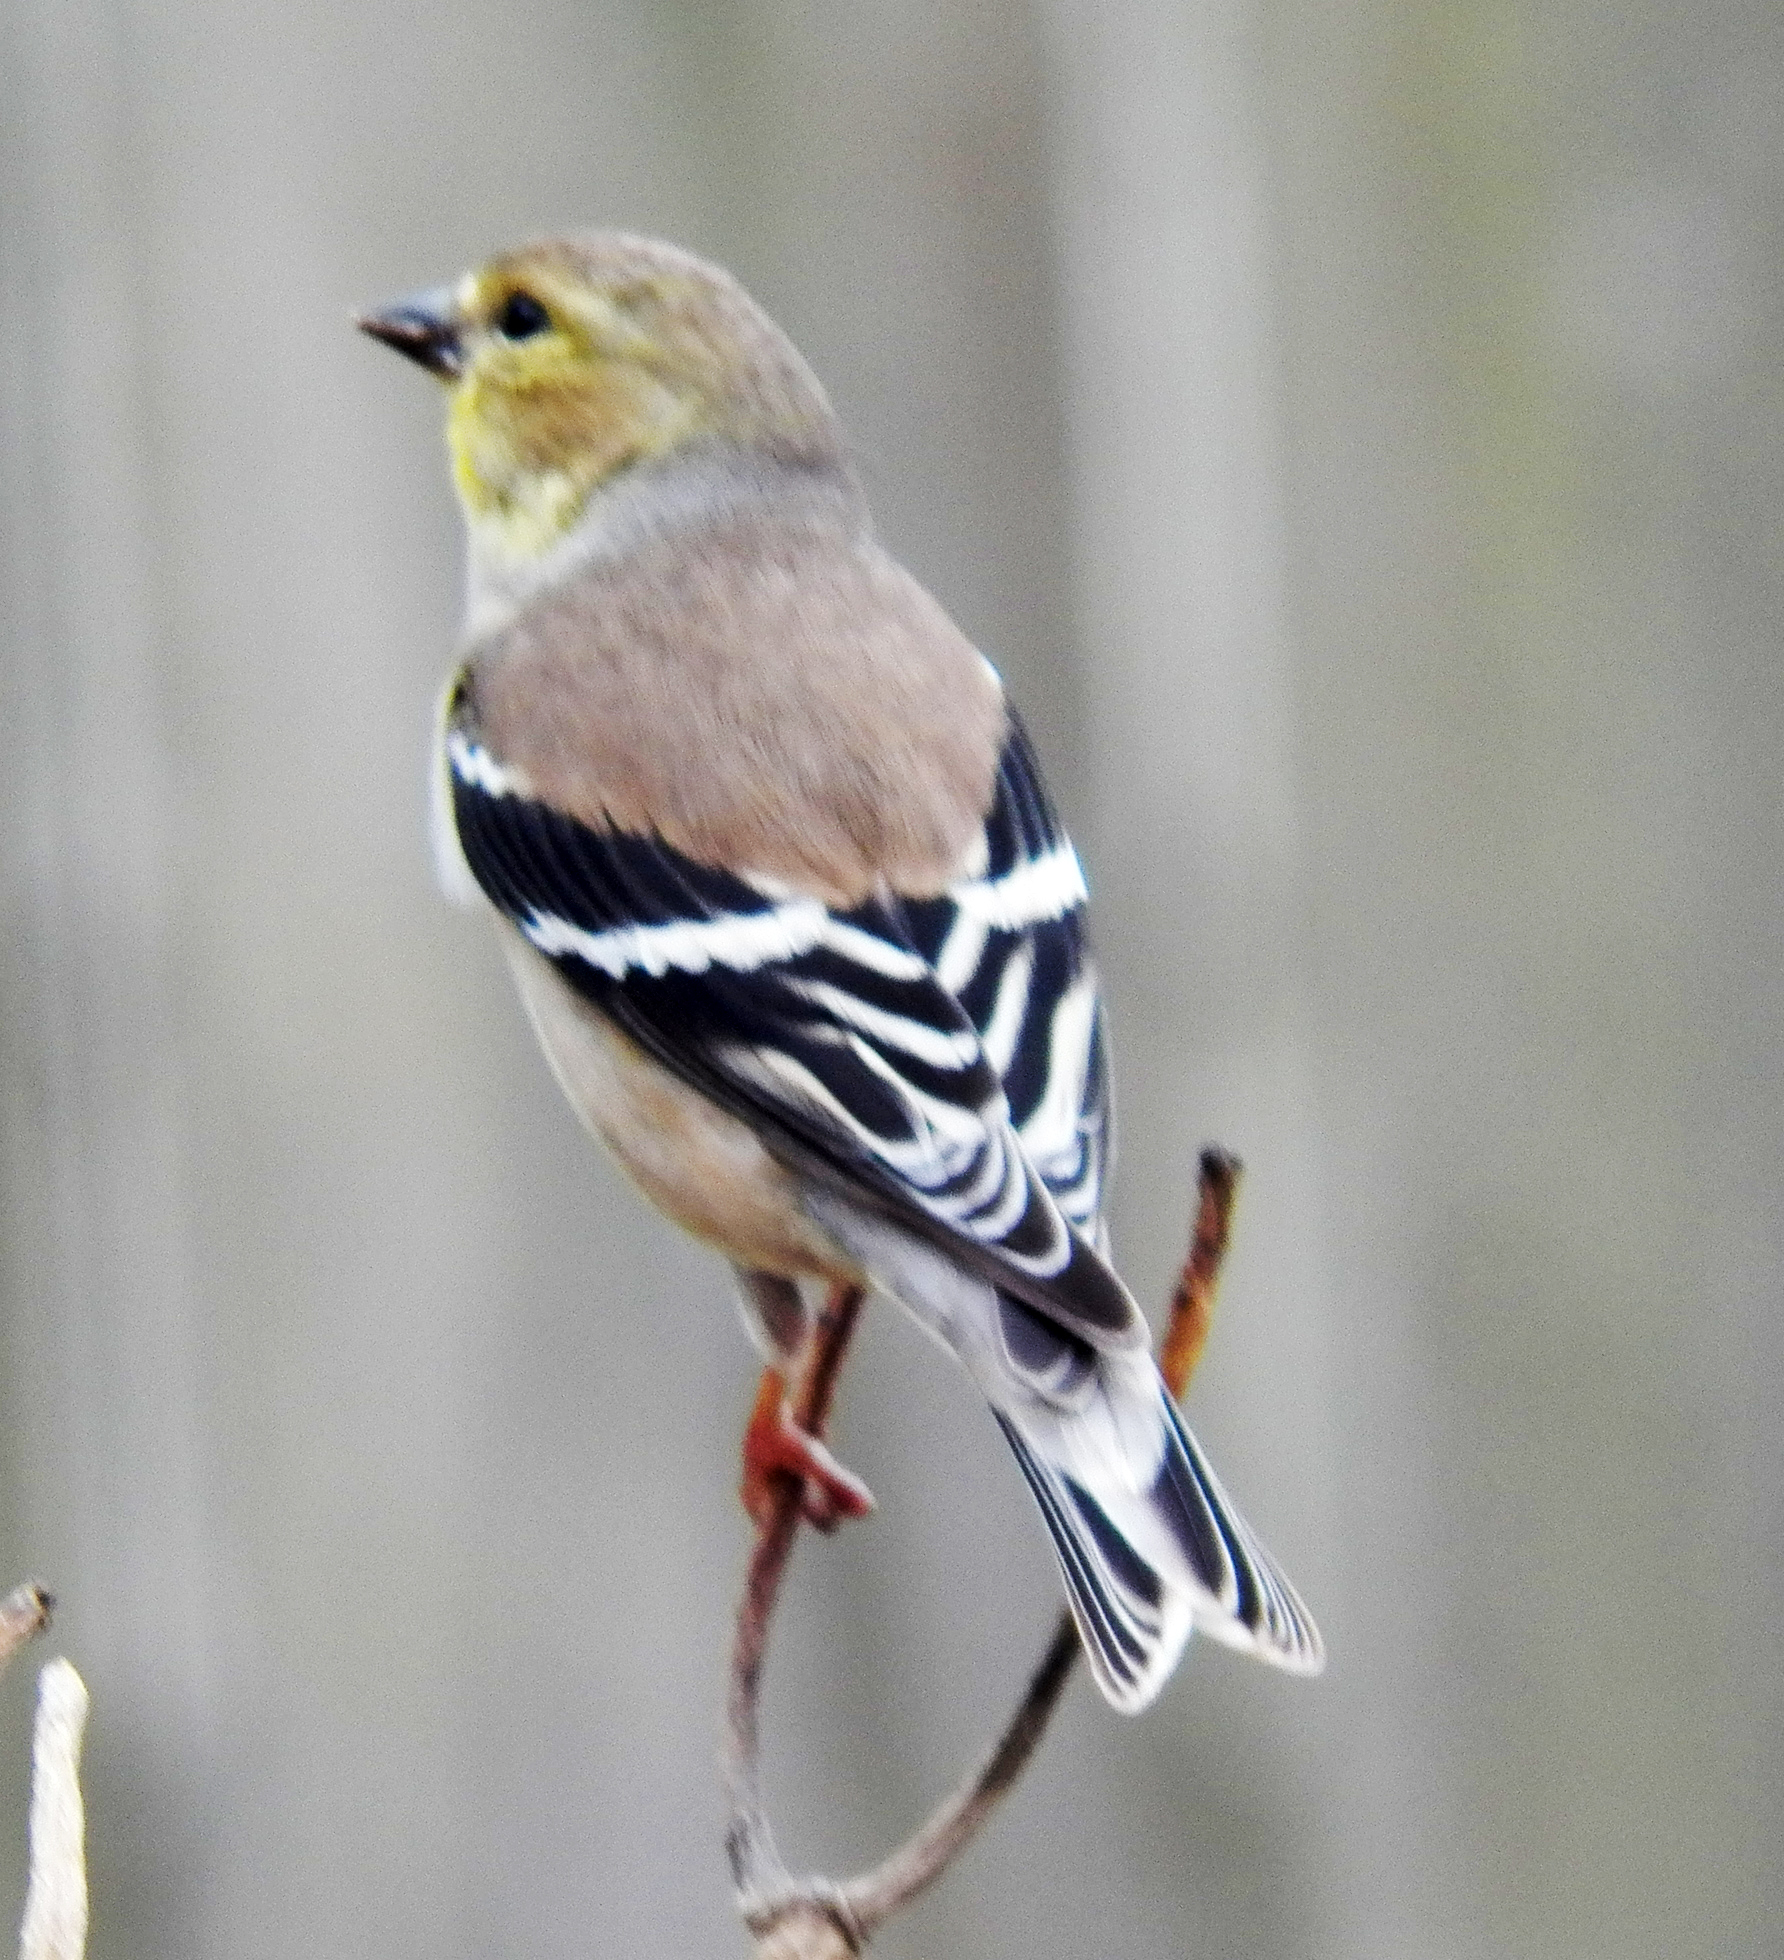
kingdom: Animalia
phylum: Chordata
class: Aves
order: Passeriformes
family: Fringillidae
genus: Spinus
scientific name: Spinus tristis
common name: American goldfinch
